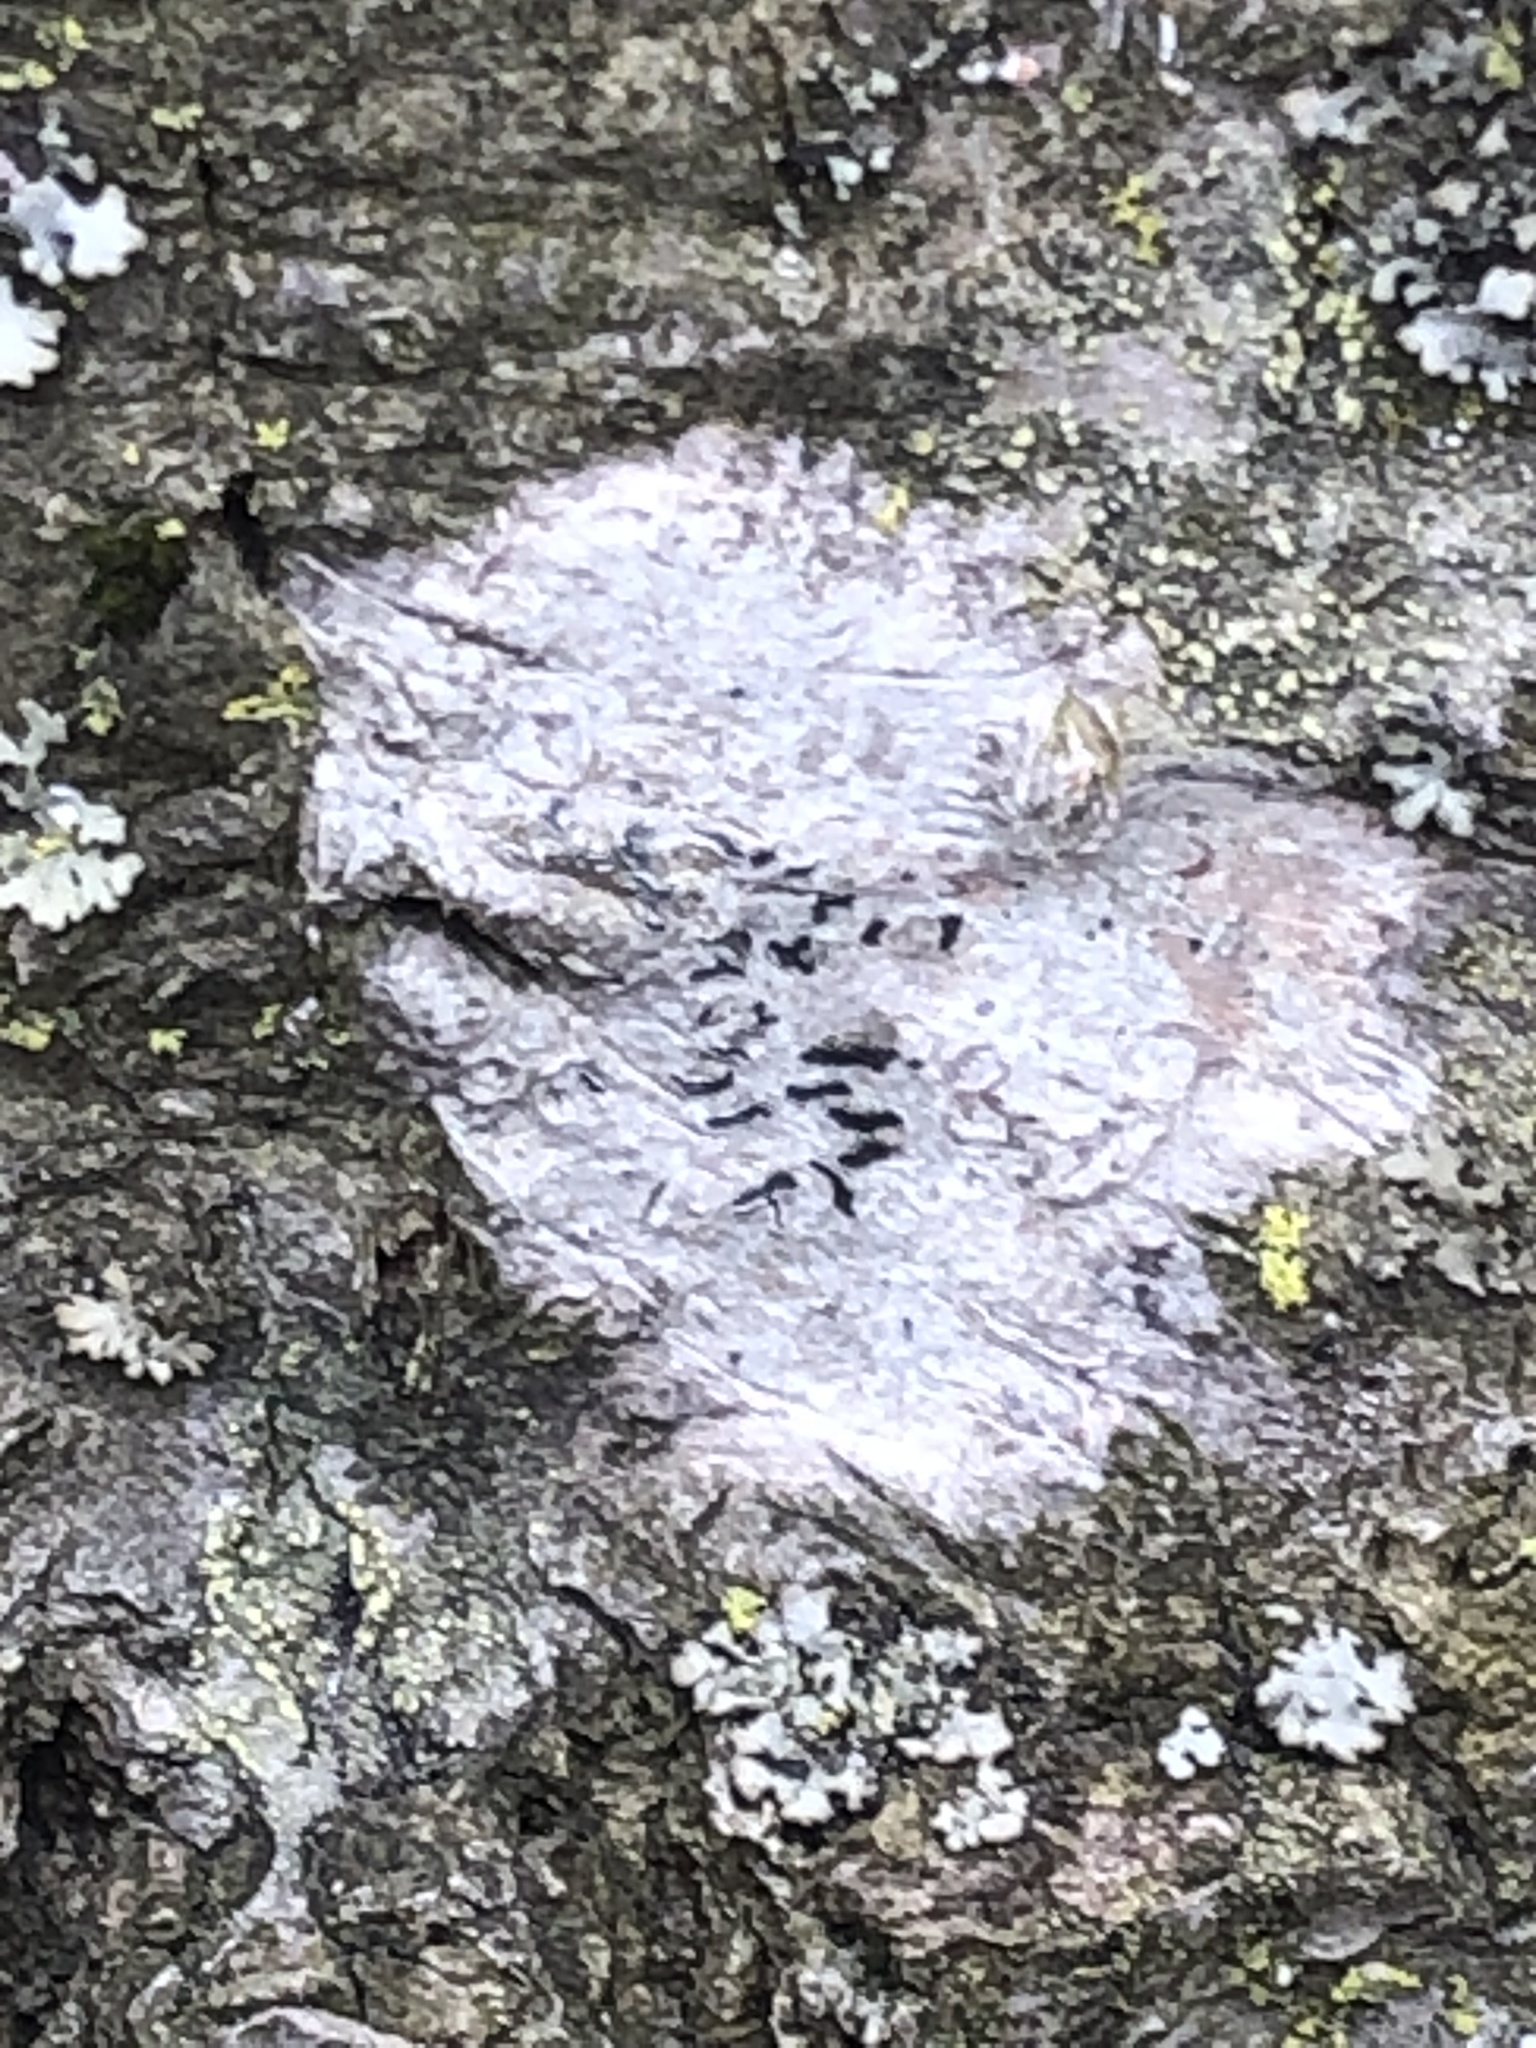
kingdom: Fungi
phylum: Ascomycota
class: Lecanoromycetes
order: Ostropales
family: Graphidaceae
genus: Graphis
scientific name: Graphis scripta
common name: Script lichen
